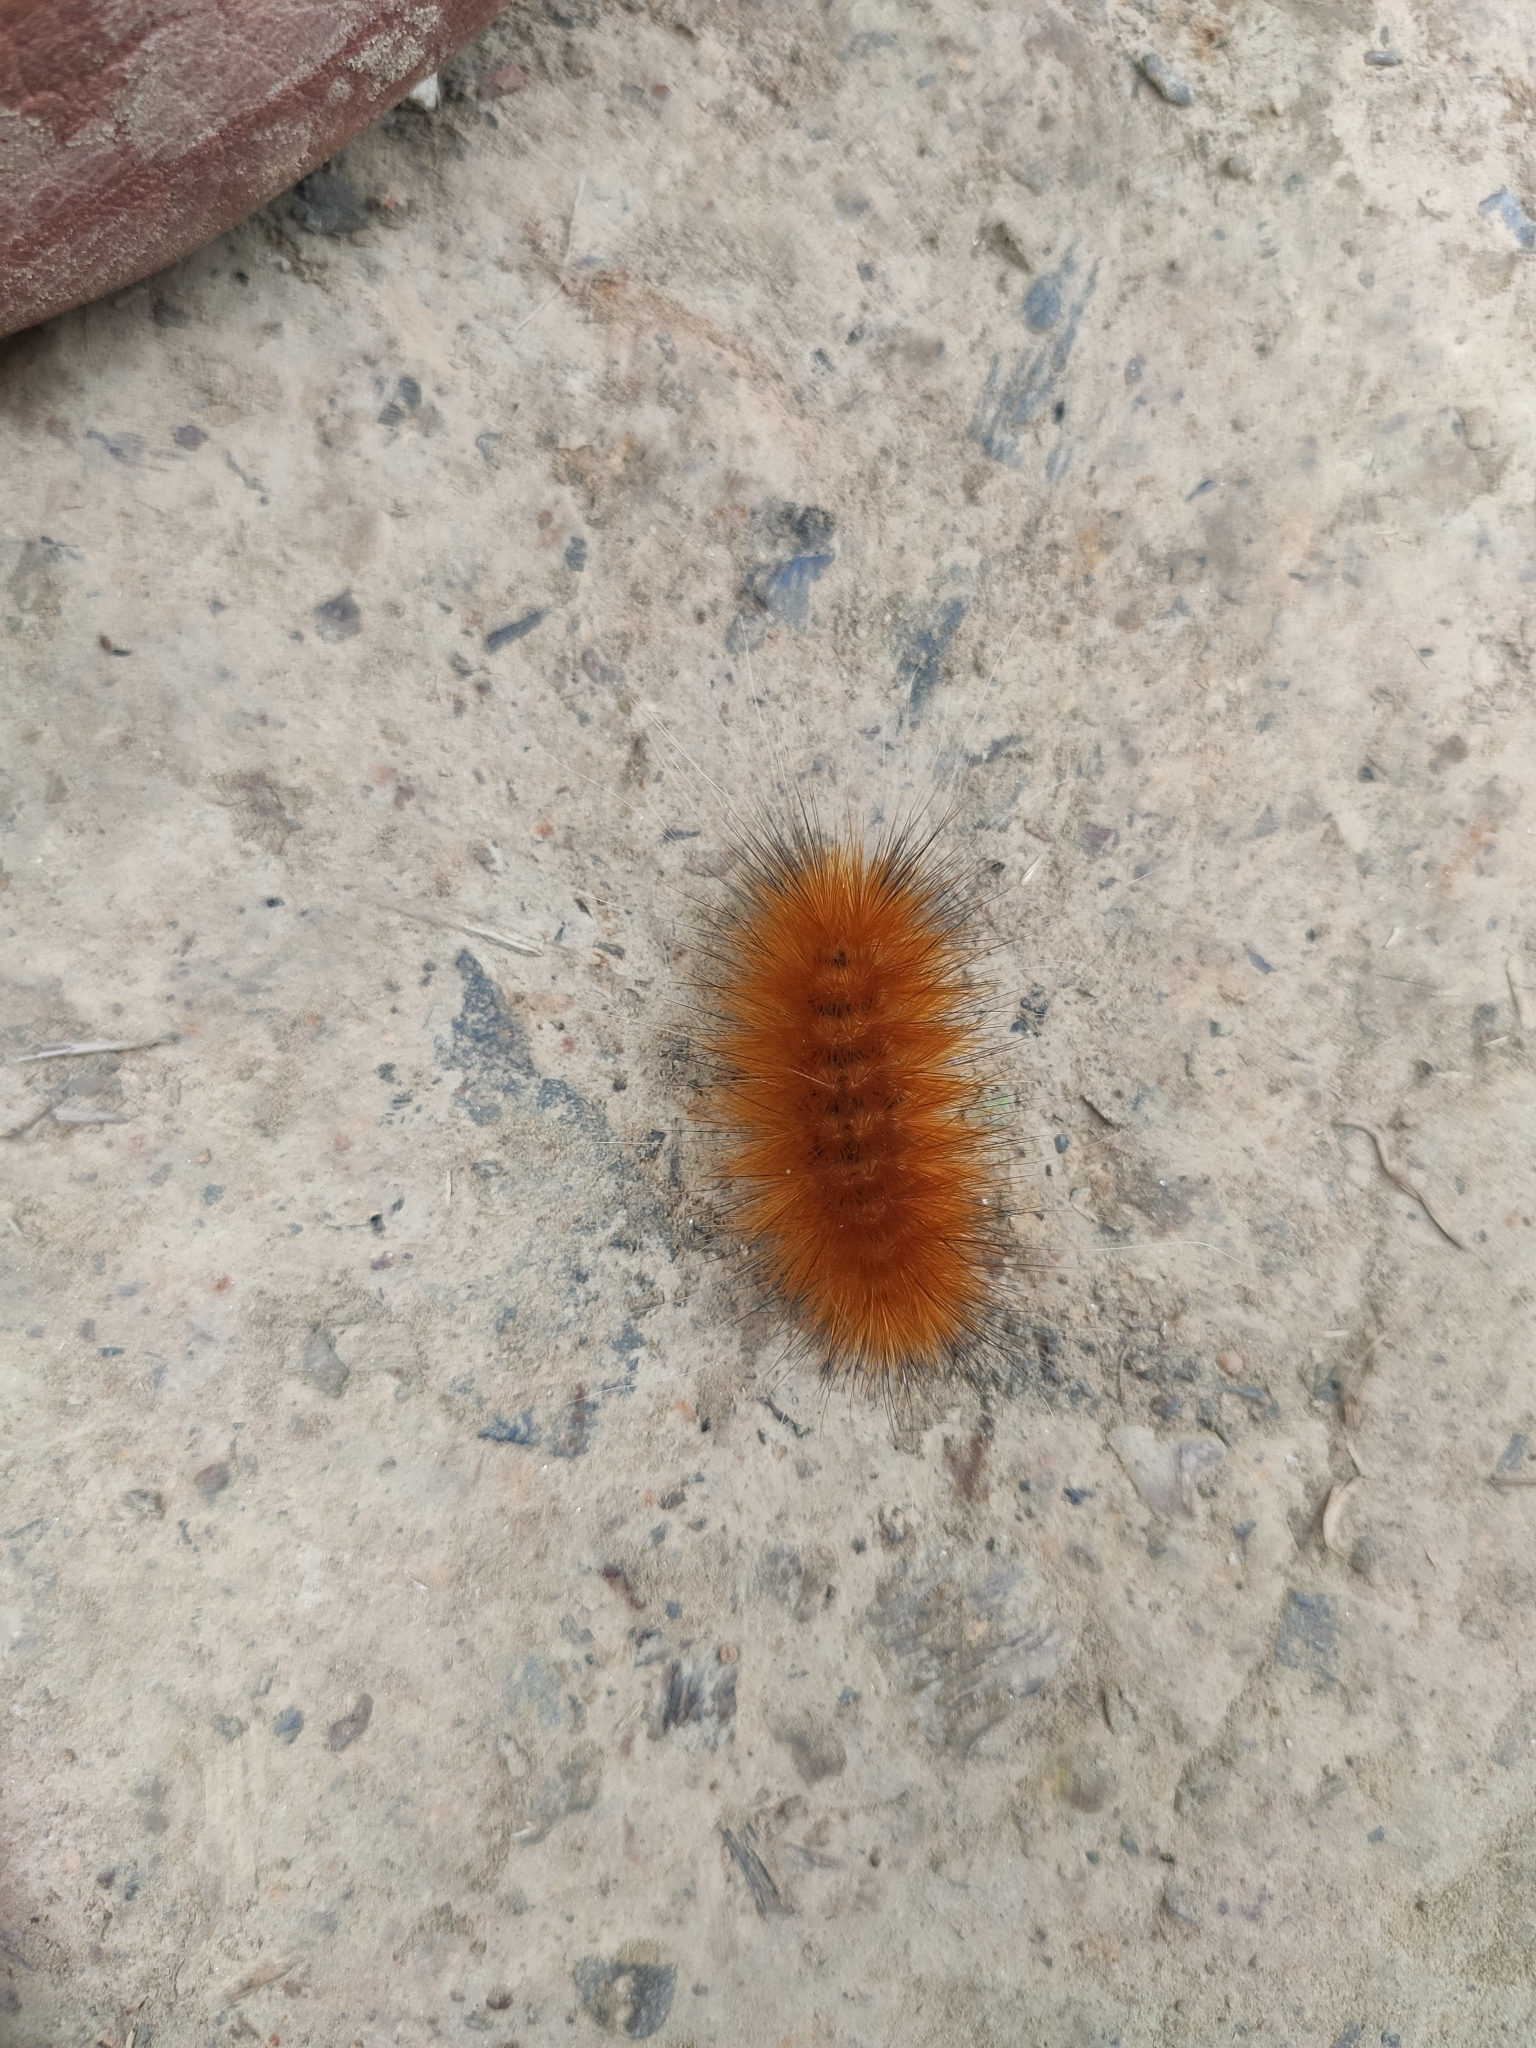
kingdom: Animalia
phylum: Arthropoda
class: Insecta
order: Lepidoptera
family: Erebidae
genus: Spilosoma
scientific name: Spilosoma virginica
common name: Virginia tiger moth
